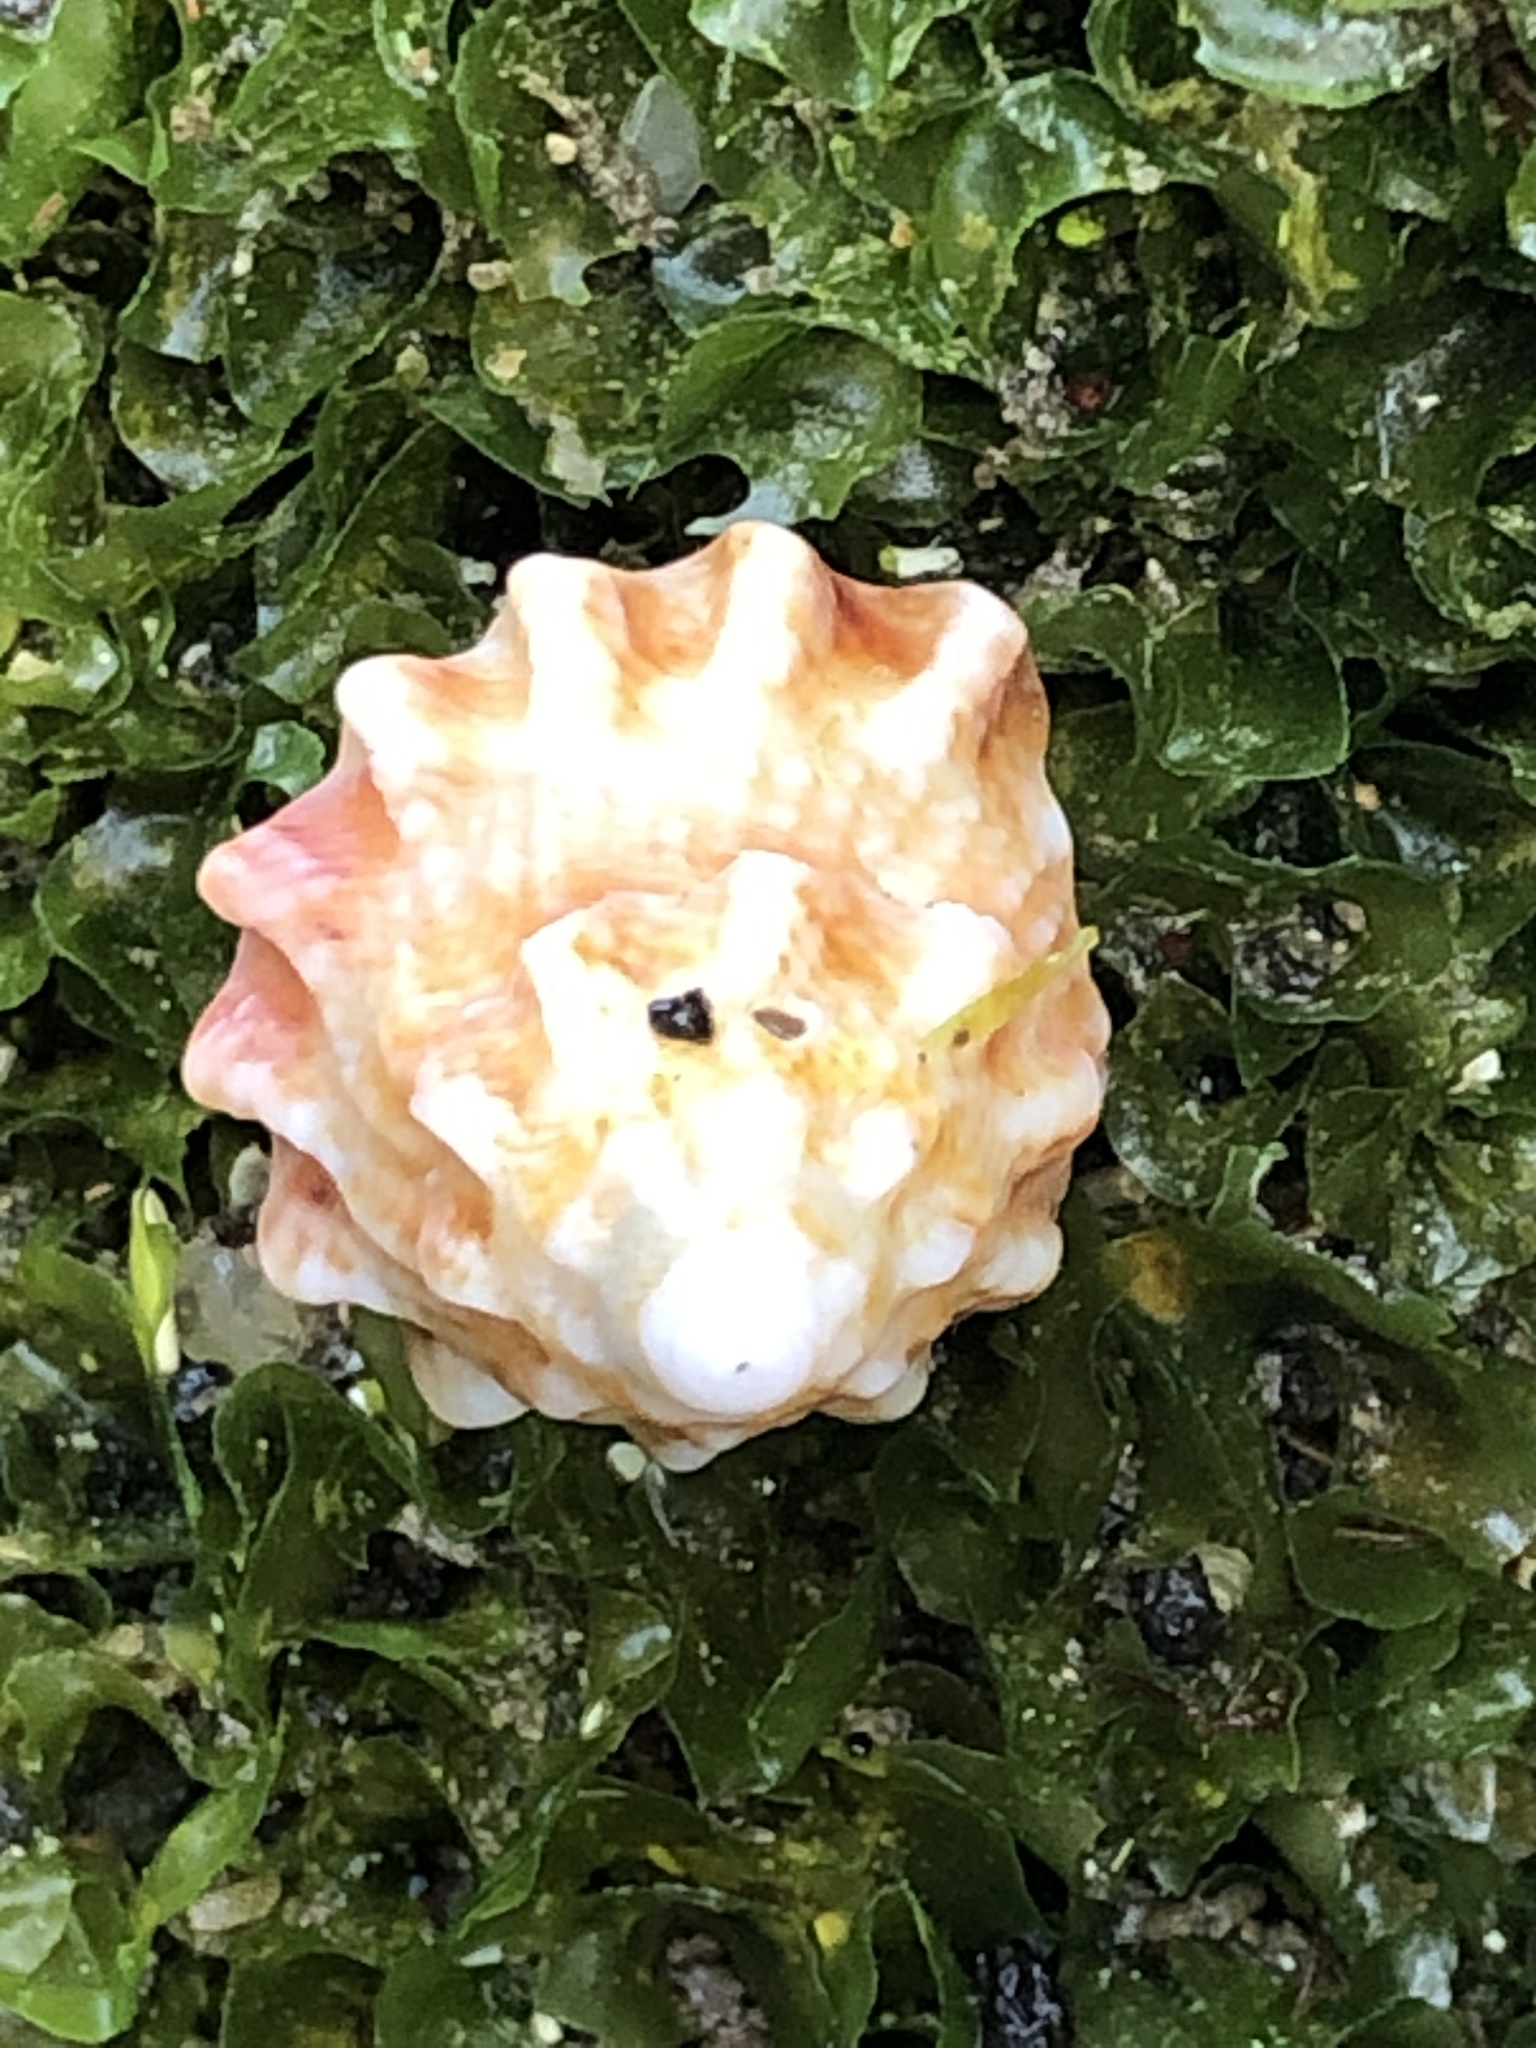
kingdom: Animalia
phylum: Mollusca
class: Gastropoda
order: Trochida
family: Turbinidae
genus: Astralium
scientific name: Astralium haematragum
